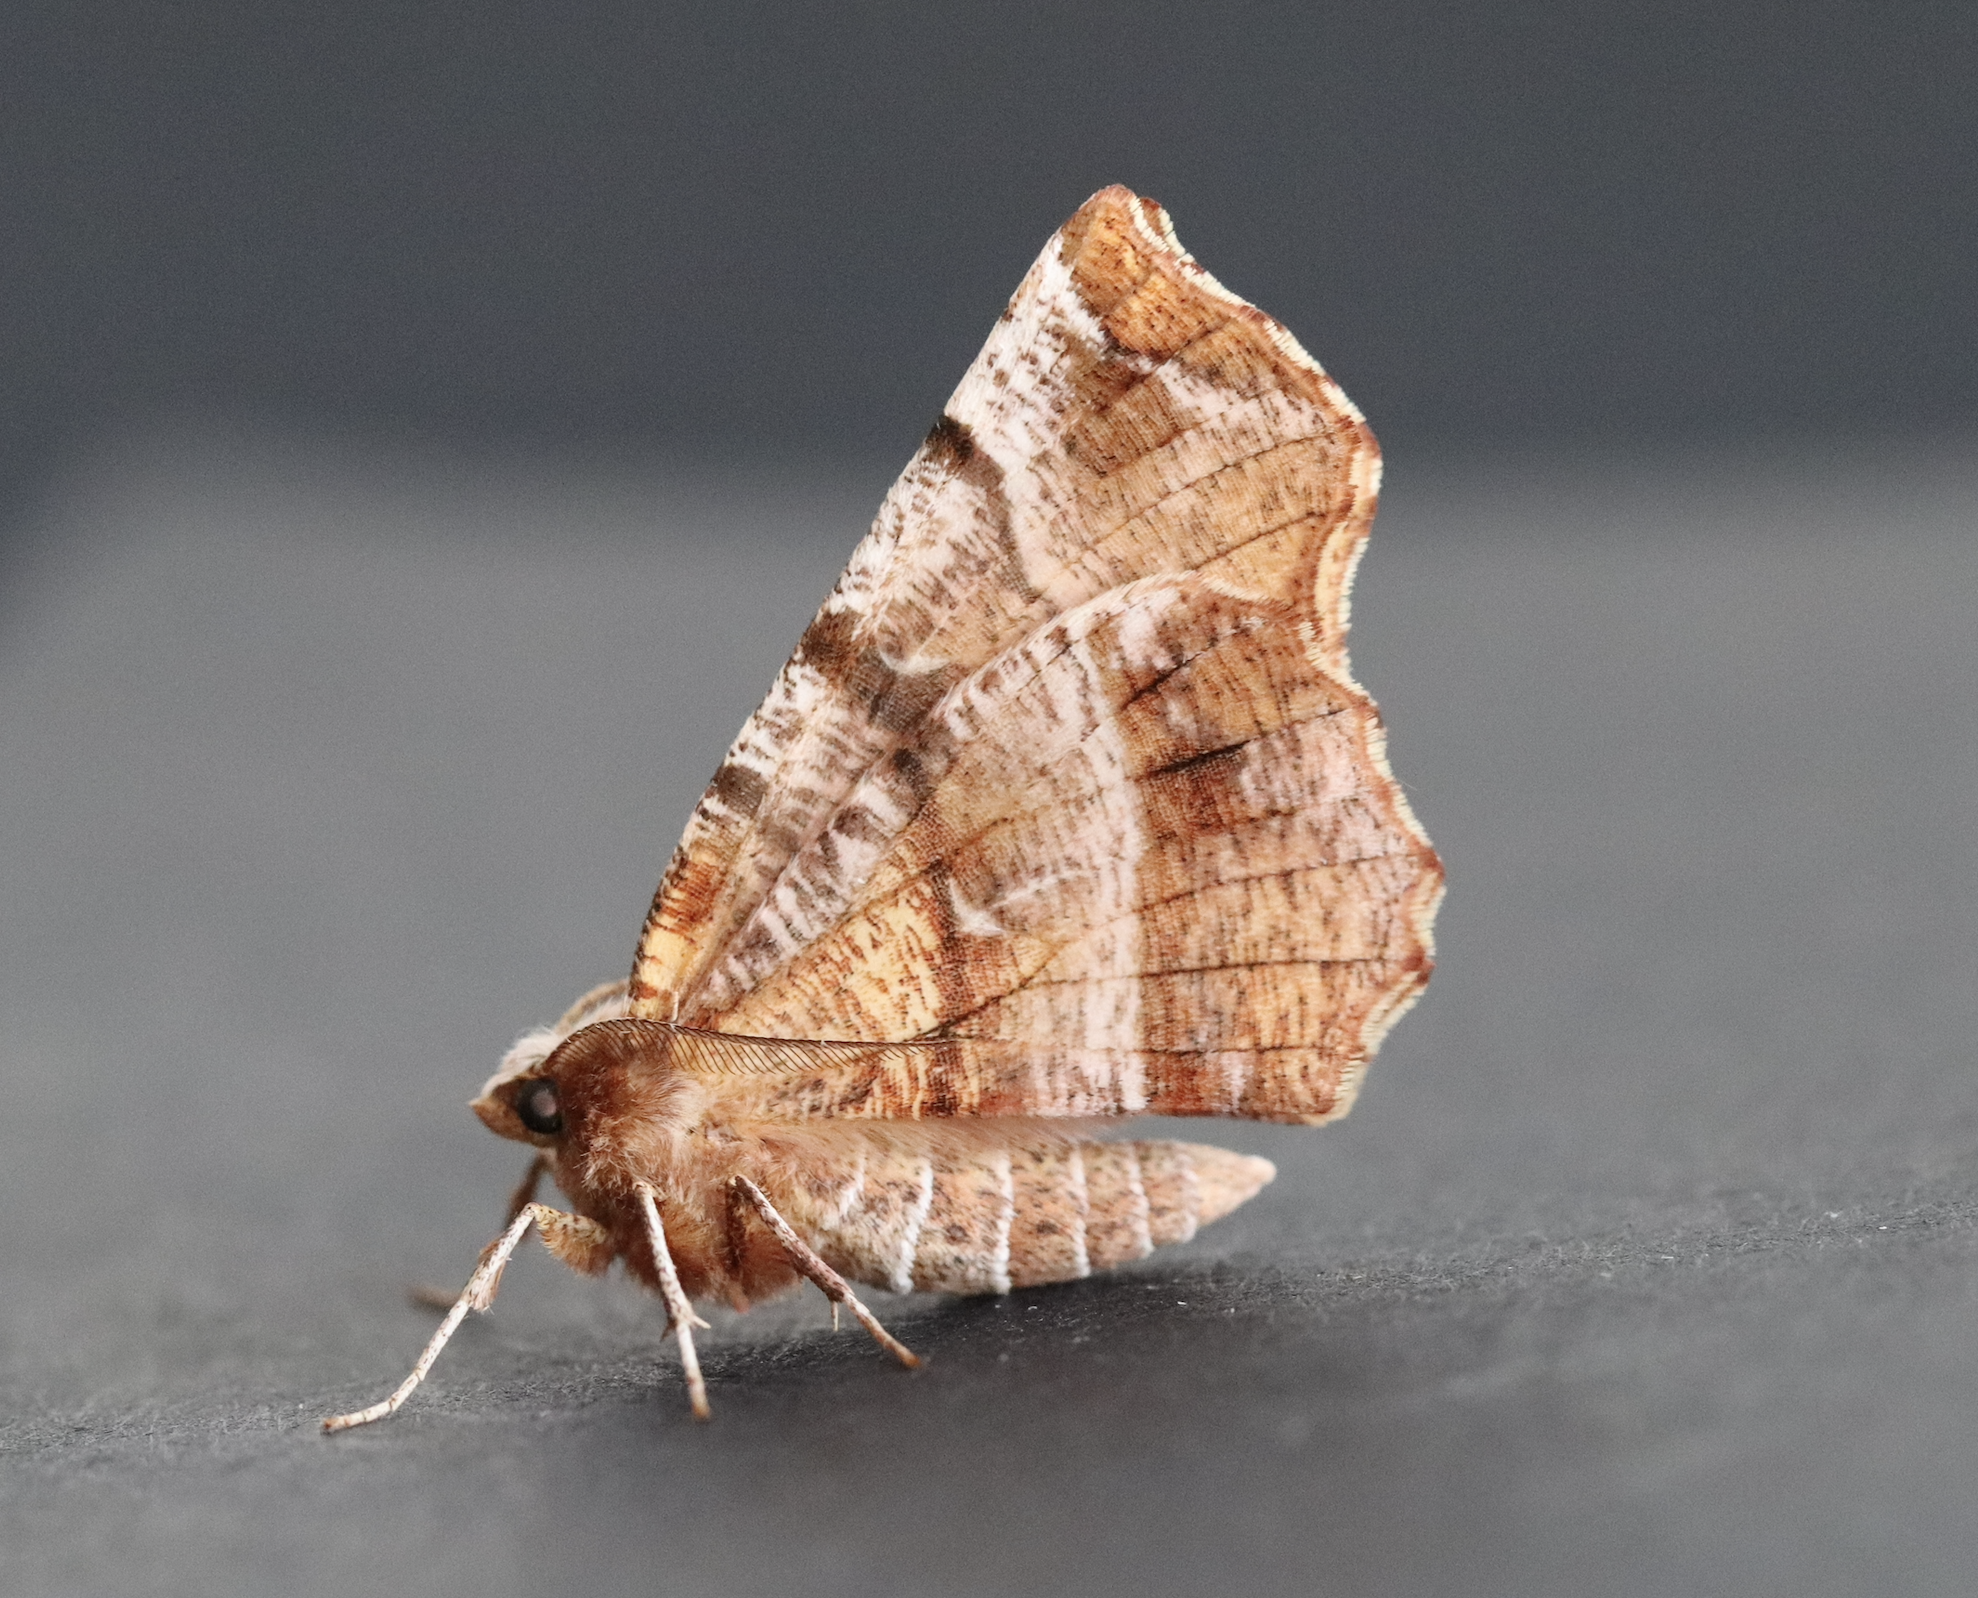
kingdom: Animalia
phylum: Arthropoda
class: Insecta
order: Lepidoptera
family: Geometridae
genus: Selenia
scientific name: Selenia dentaria
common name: Early thorn
